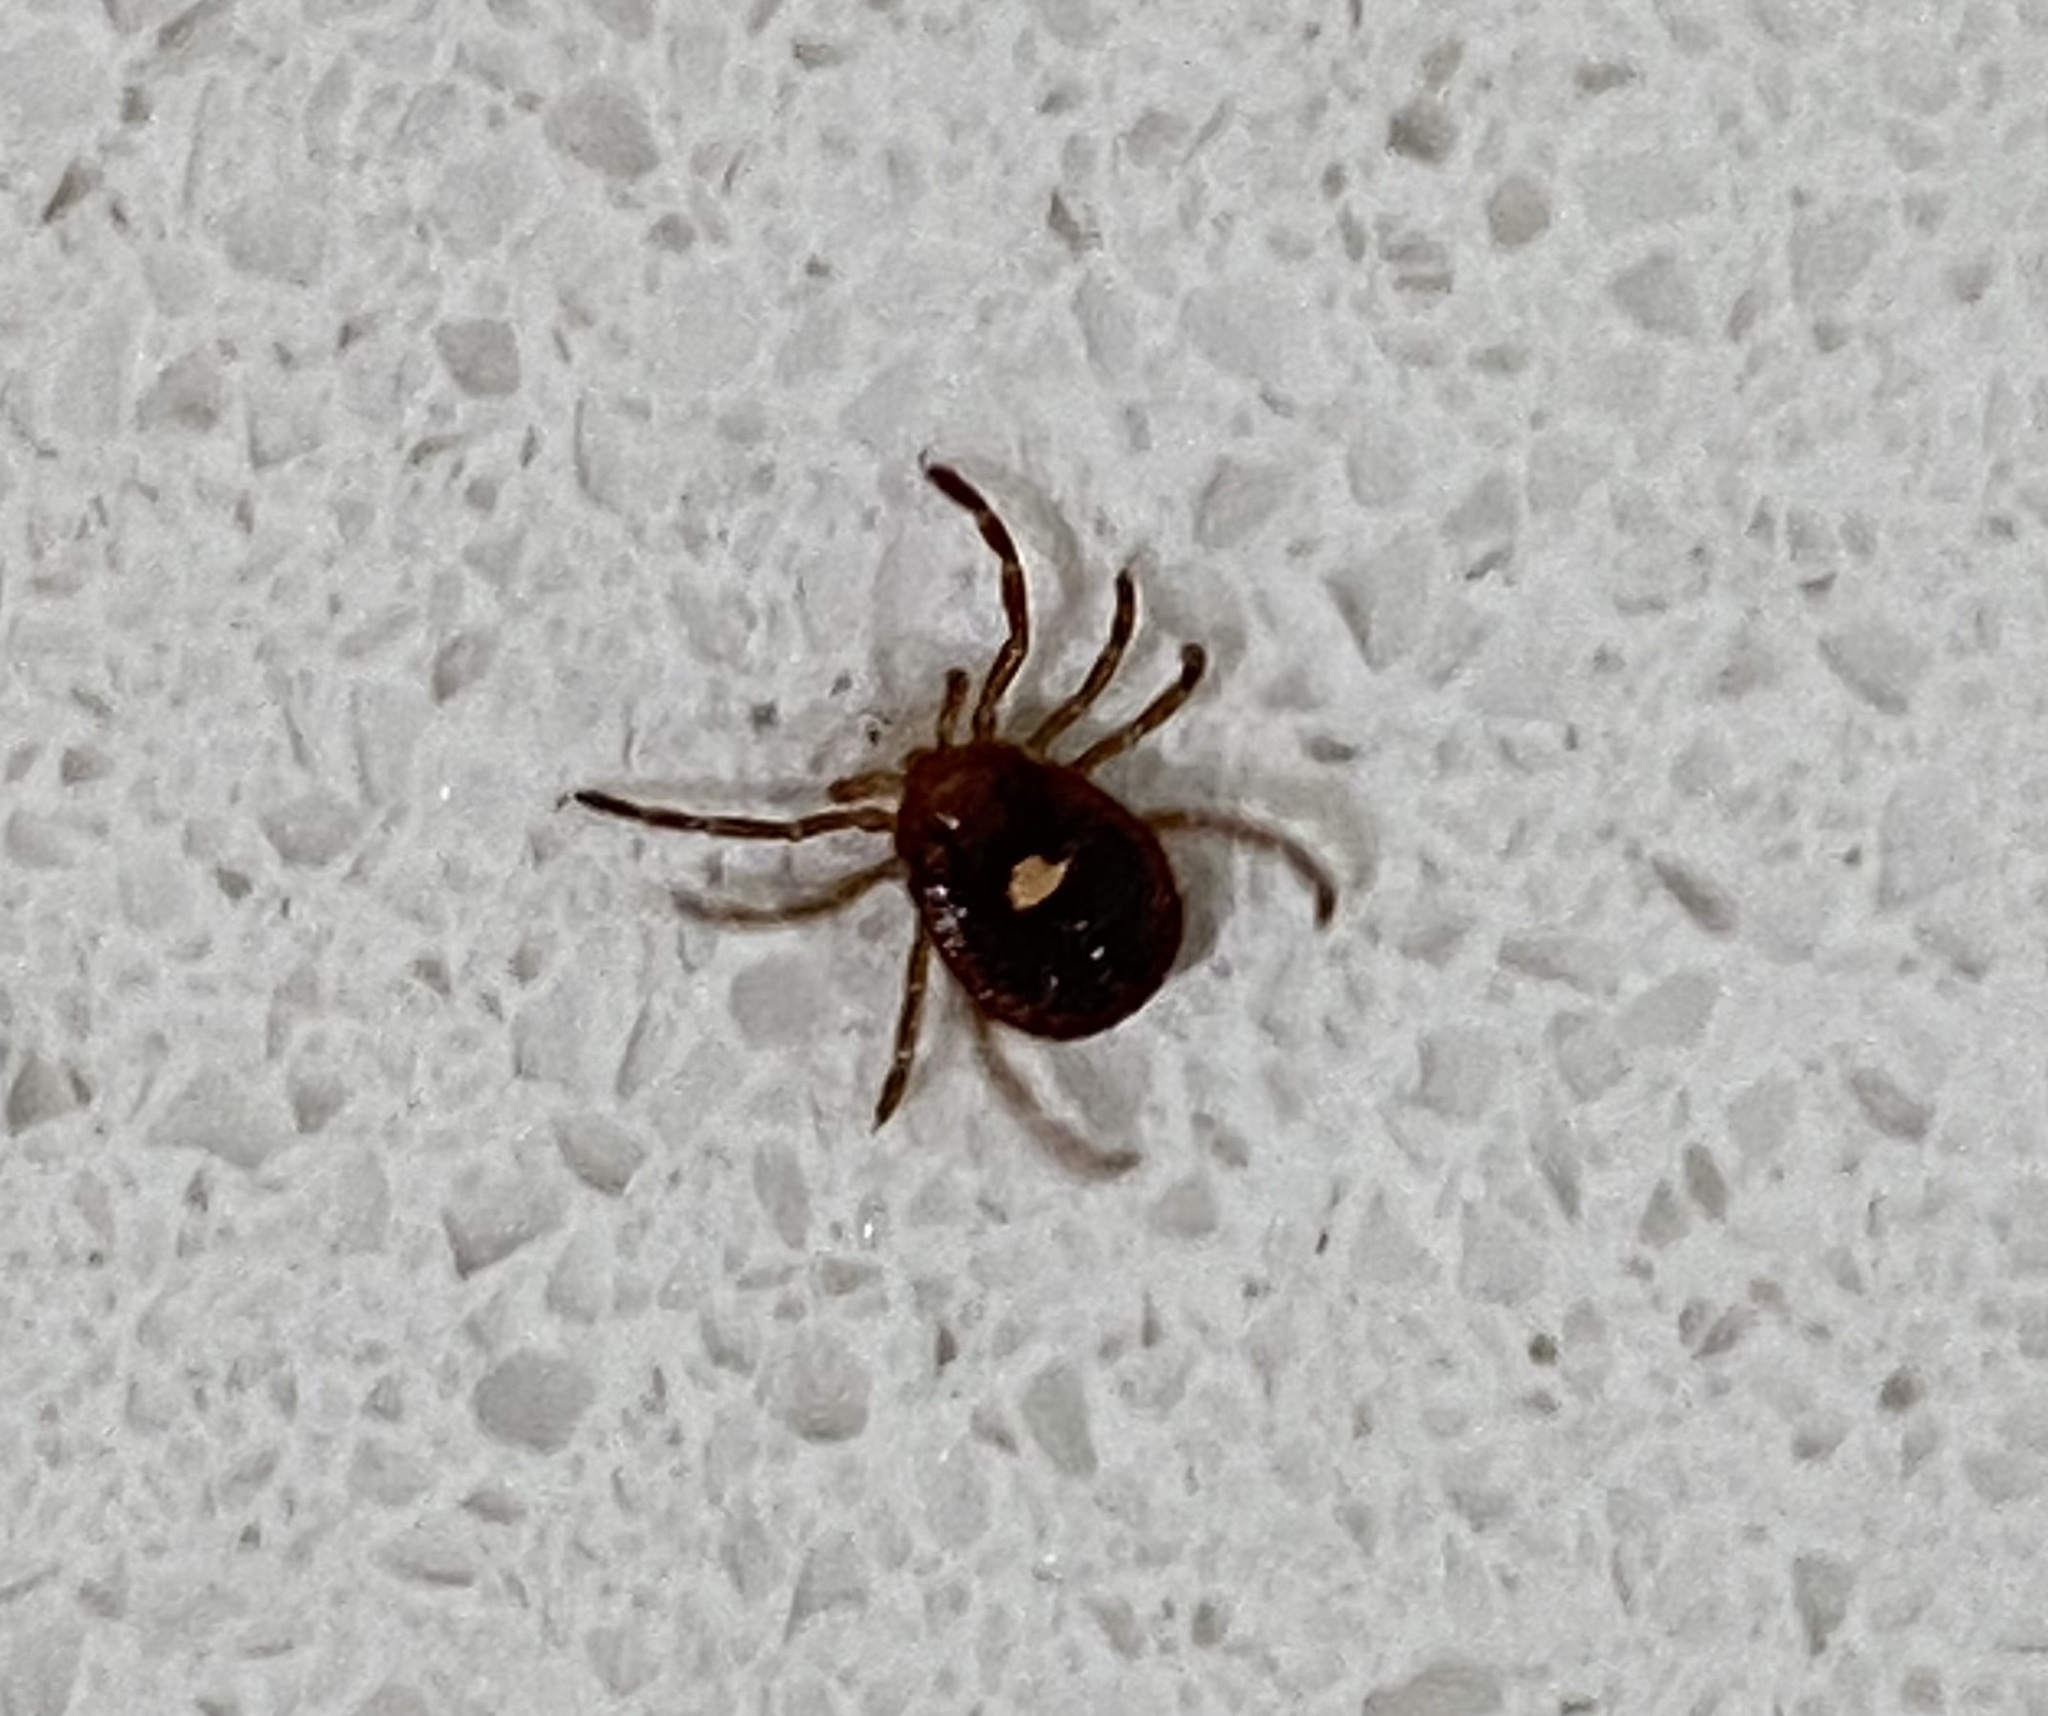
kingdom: Animalia
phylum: Arthropoda
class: Arachnida
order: Ixodida
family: Ixodidae
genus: Amblyomma
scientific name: Amblyomma americanum
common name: Lone star tick
